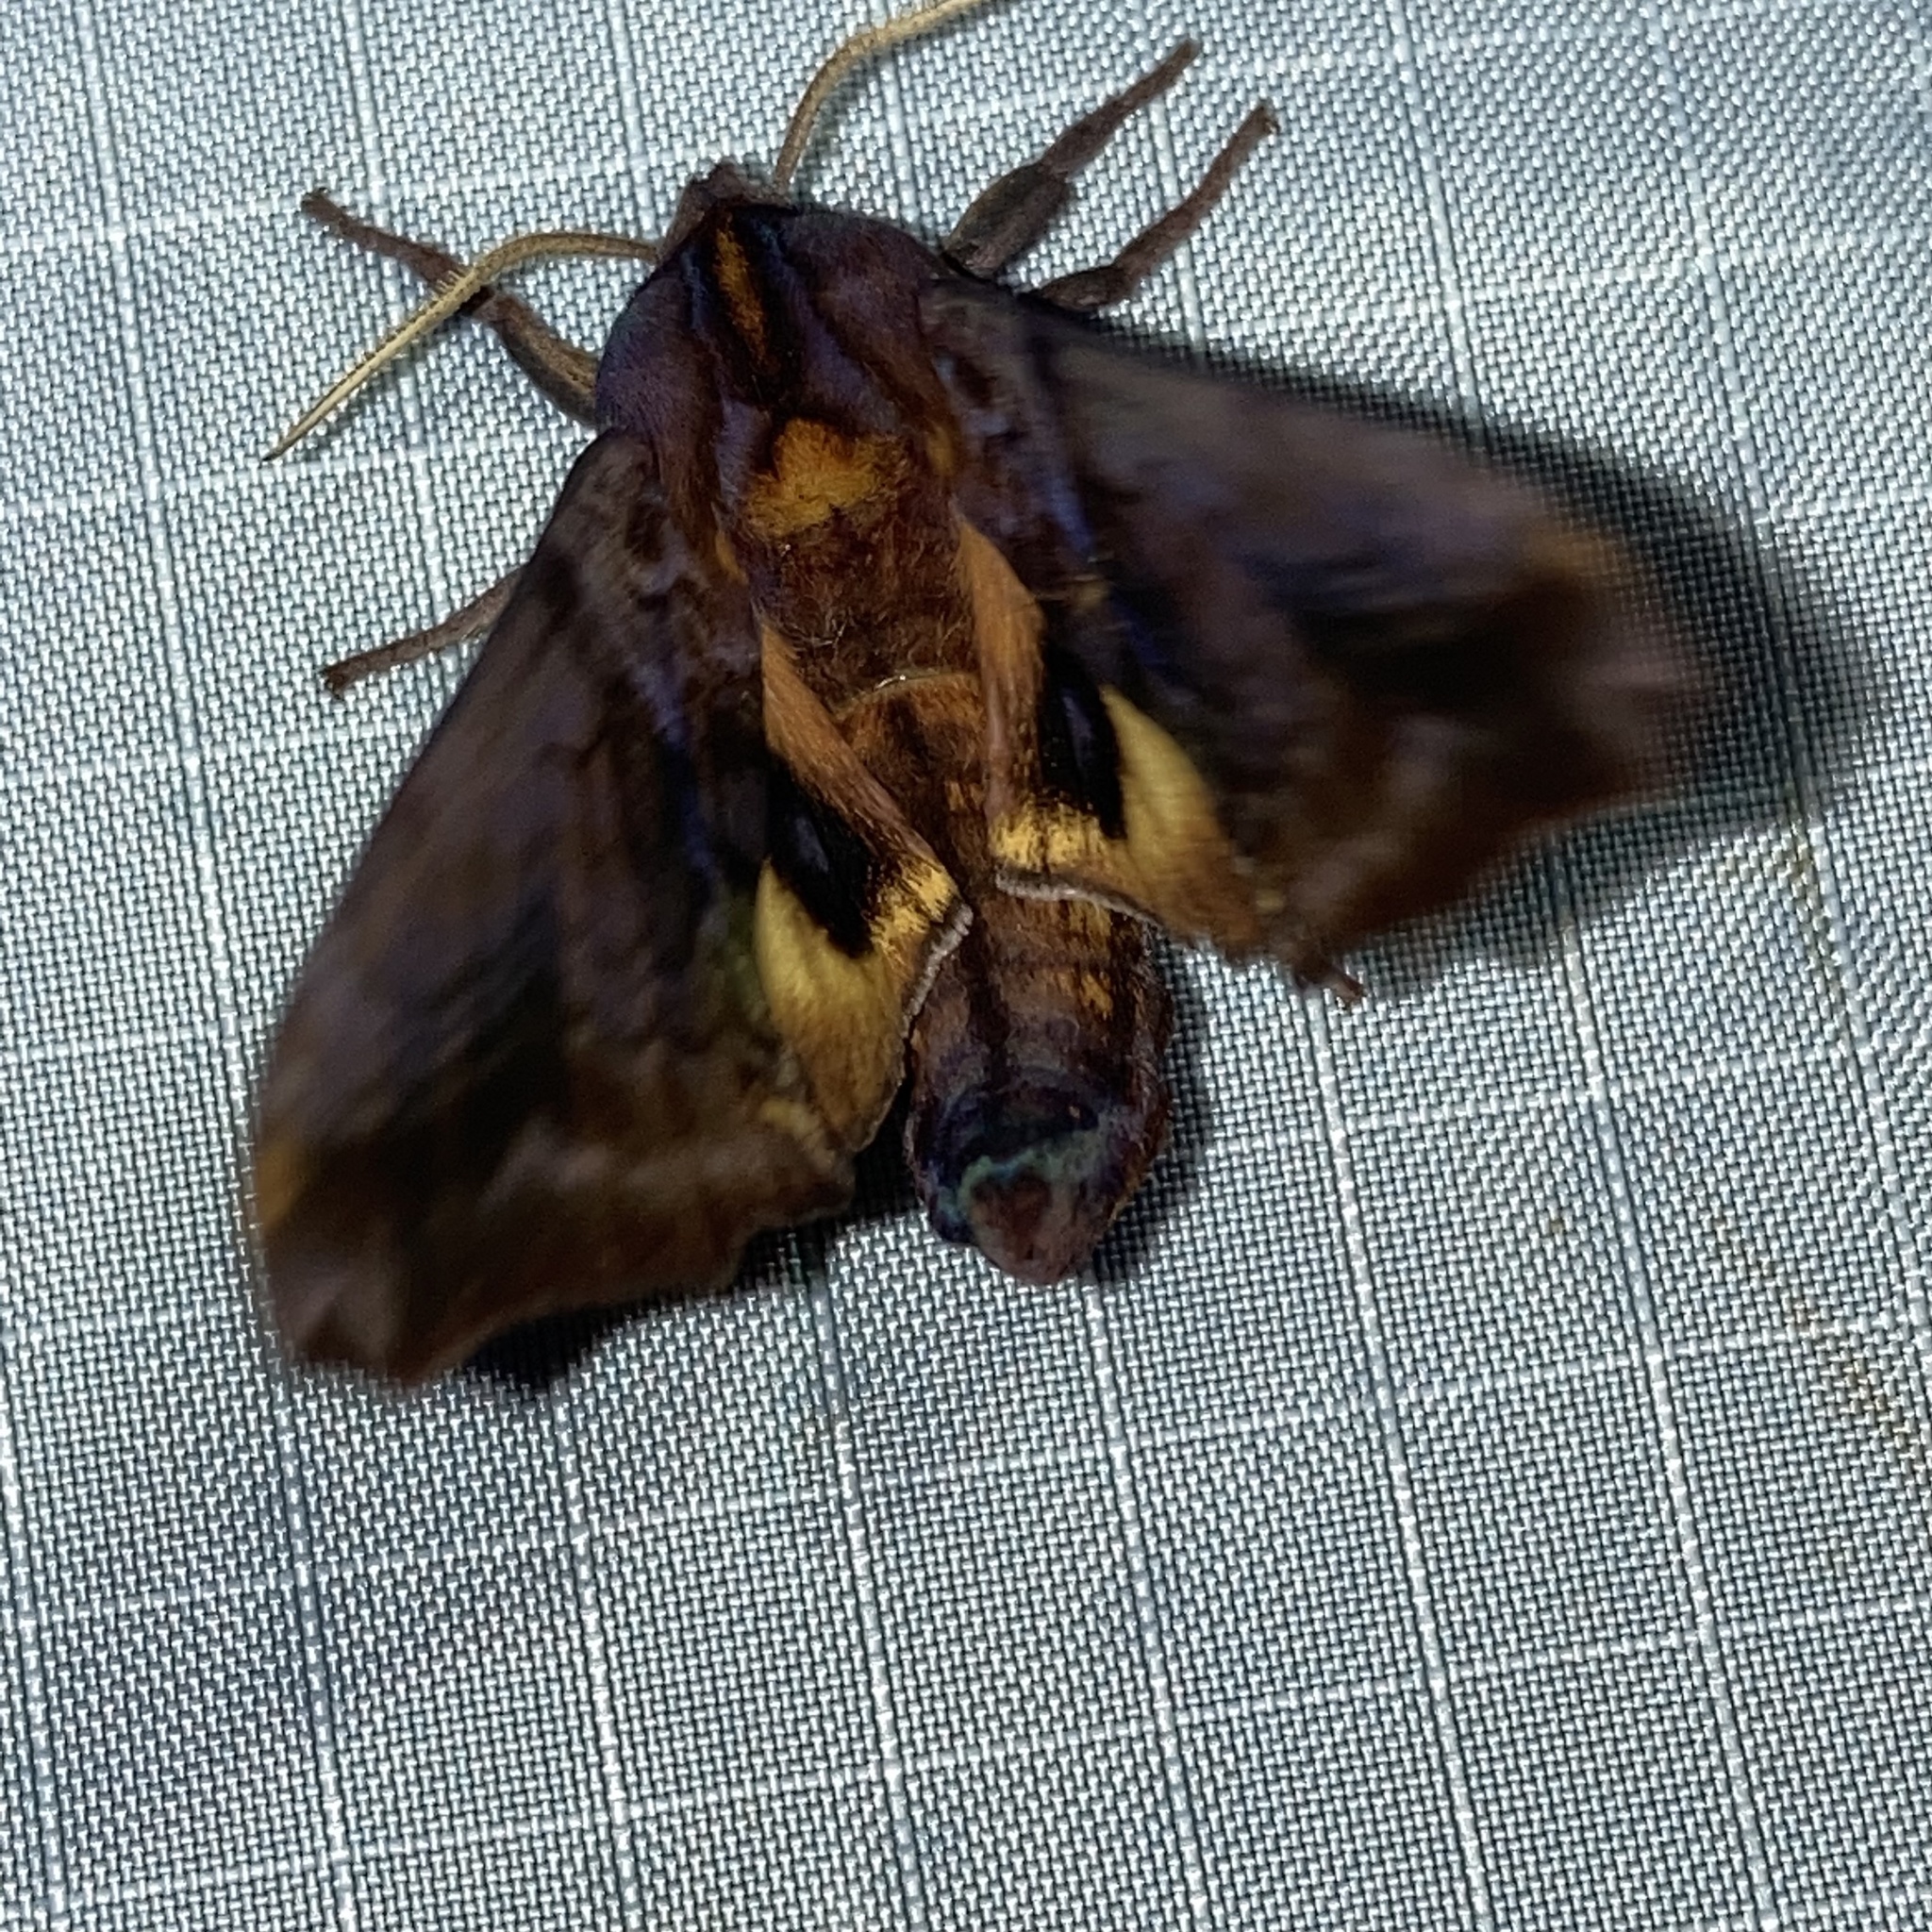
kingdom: Animalia
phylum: Arthropoda
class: Insecta
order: Lepidoptera
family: Sphingidae
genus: Paonias
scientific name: Paonias myops
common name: Small-eyed sphinx
